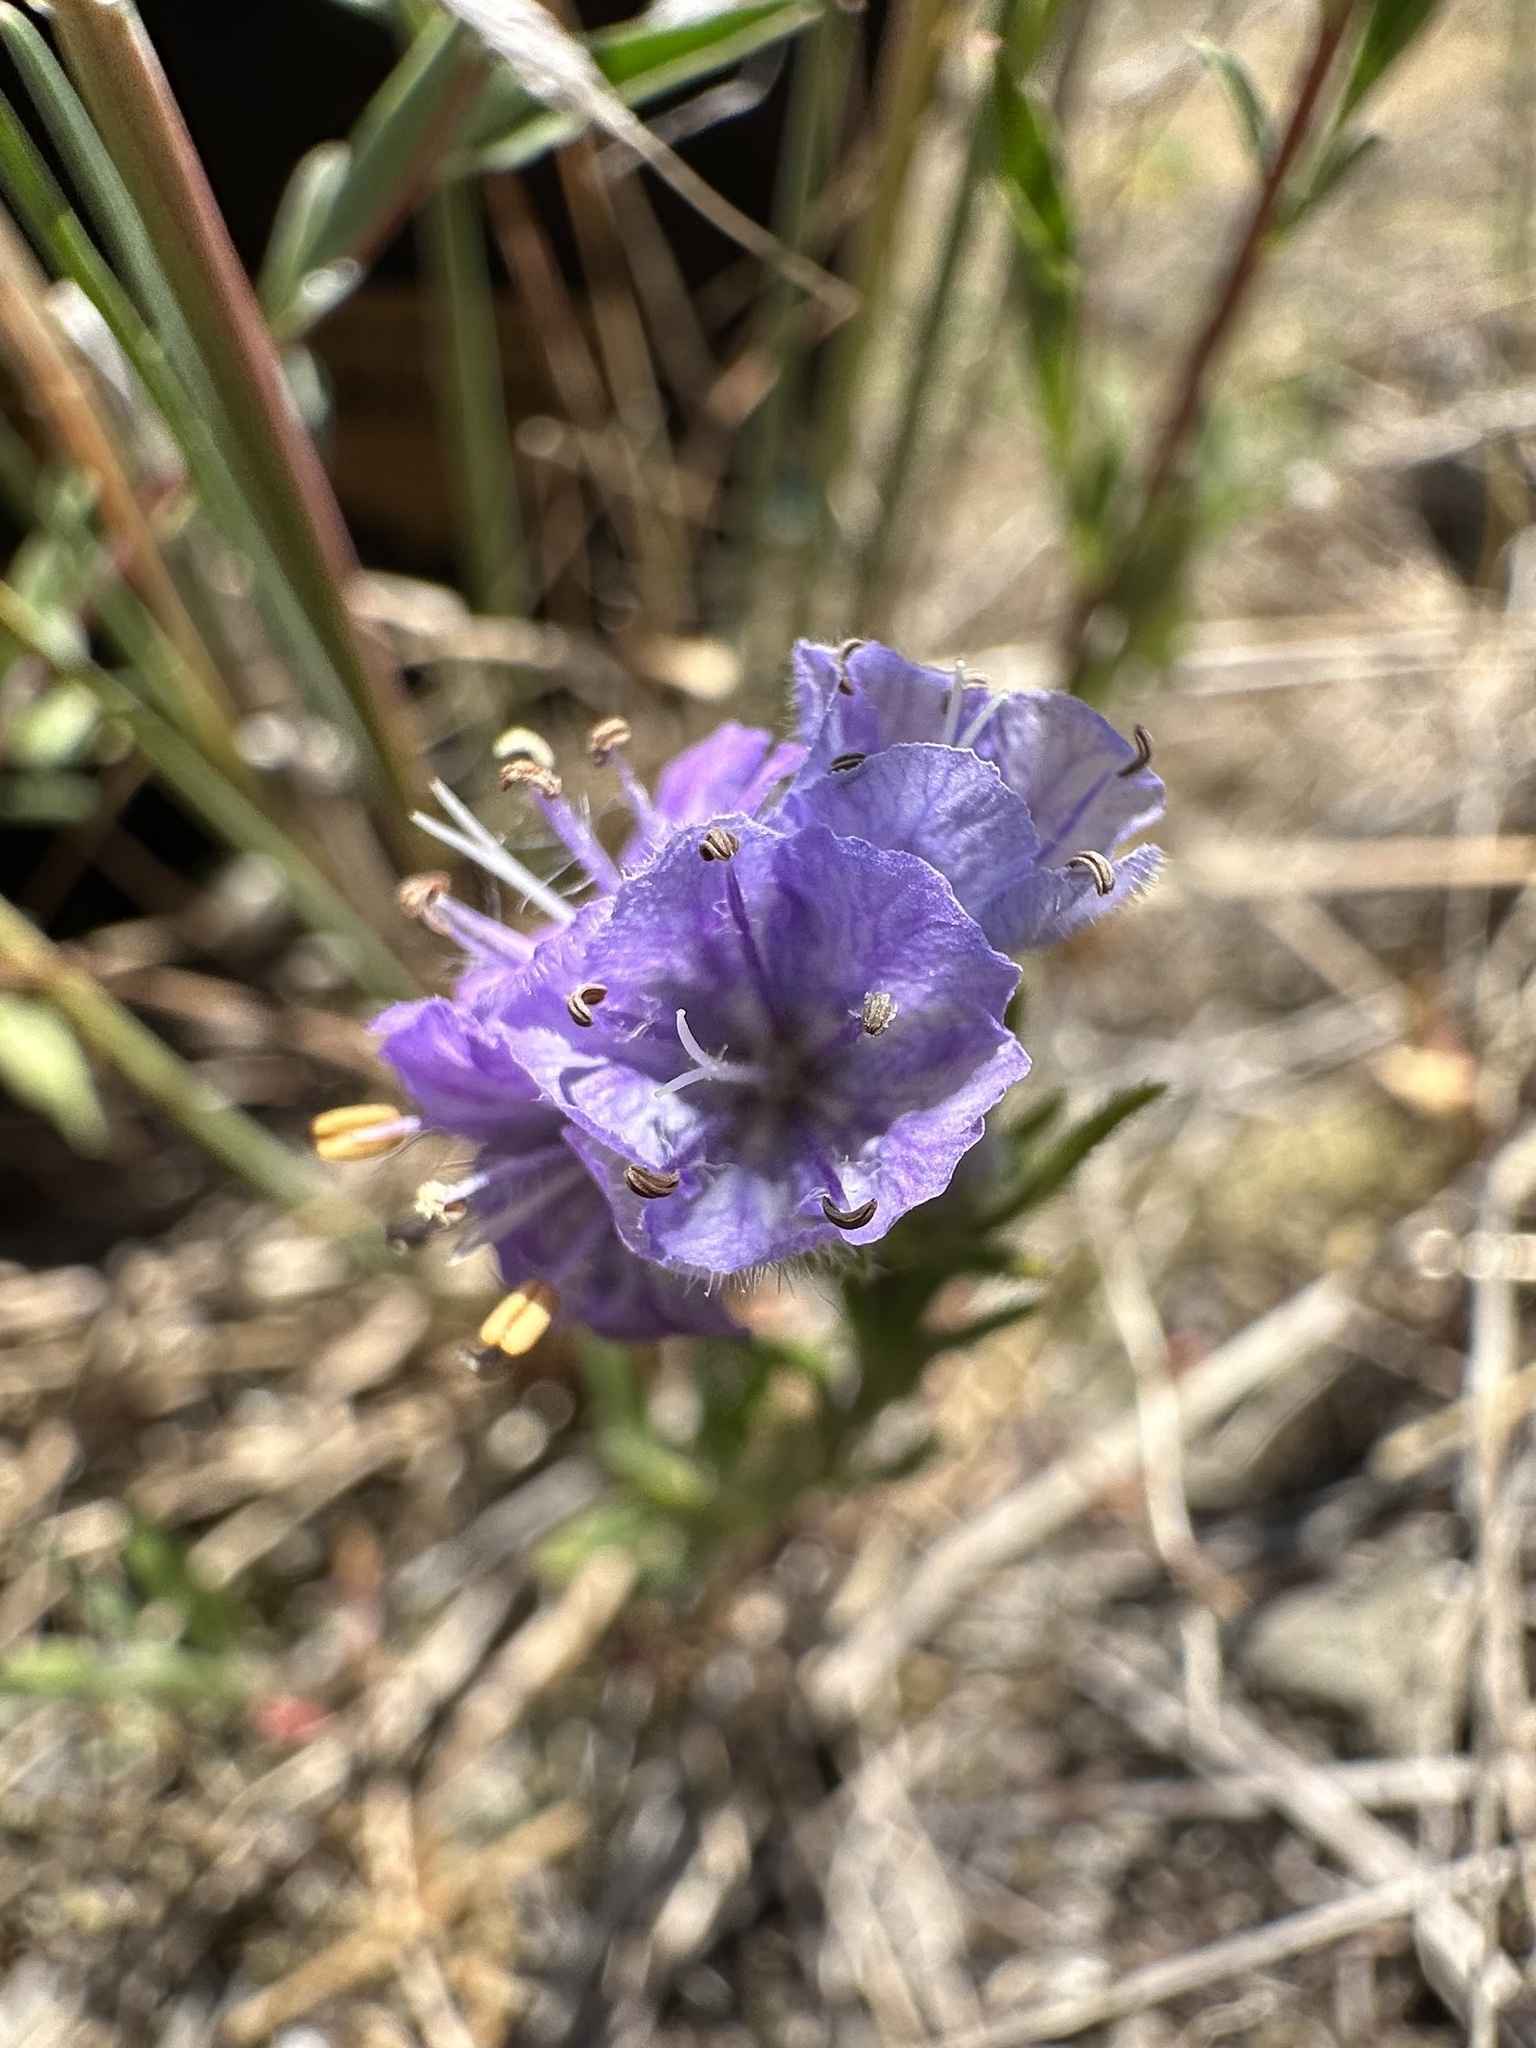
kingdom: Plantae
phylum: Tracheophyta
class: Magnoliopsida
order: Boraginales
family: Hydrophyllaceae
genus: Phacelia
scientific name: Phacelia linearis
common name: Linear-leaved phacelia
